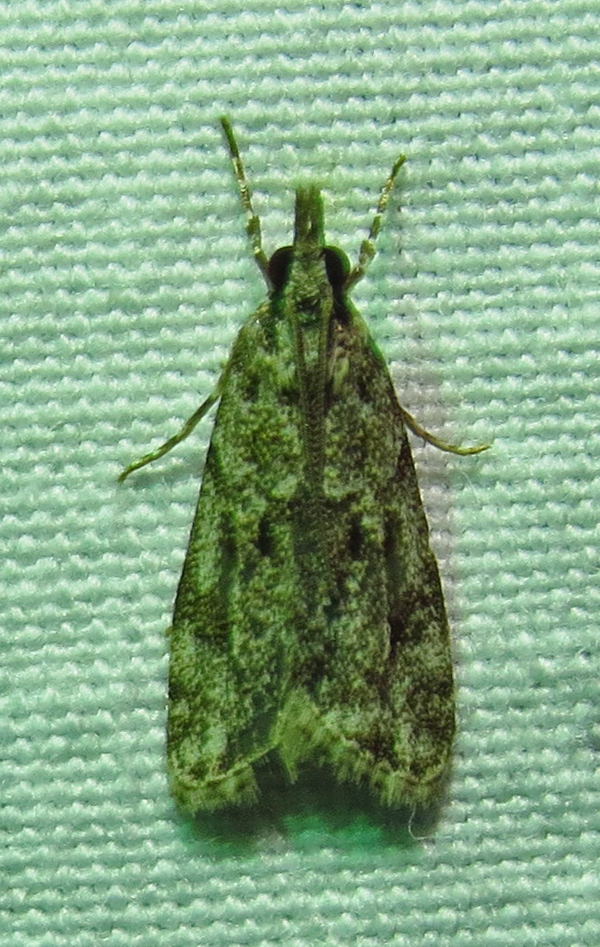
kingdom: Animalia
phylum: Arthropoda
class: Insecta
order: Lepidoptera
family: Crambidae
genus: Eudonia
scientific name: Eudonia heterosalis
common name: Mcdunnough's eudonia
